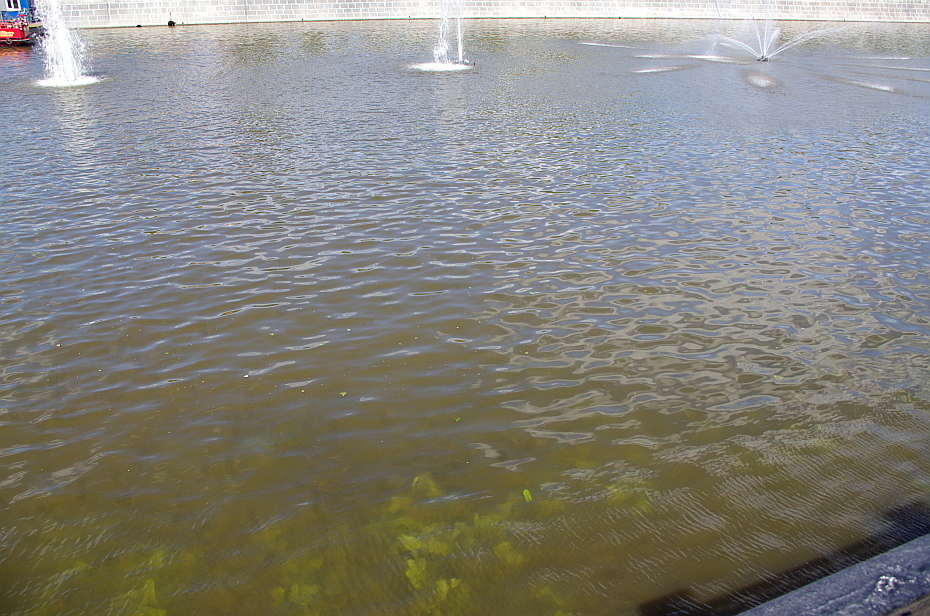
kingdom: Plantae
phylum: Tracheophyta
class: Magnoliopsida
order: Nymphaeales
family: Nymphaeaceae
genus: Nuphar
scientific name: Nuphar lutea
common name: Yellow water-lily
